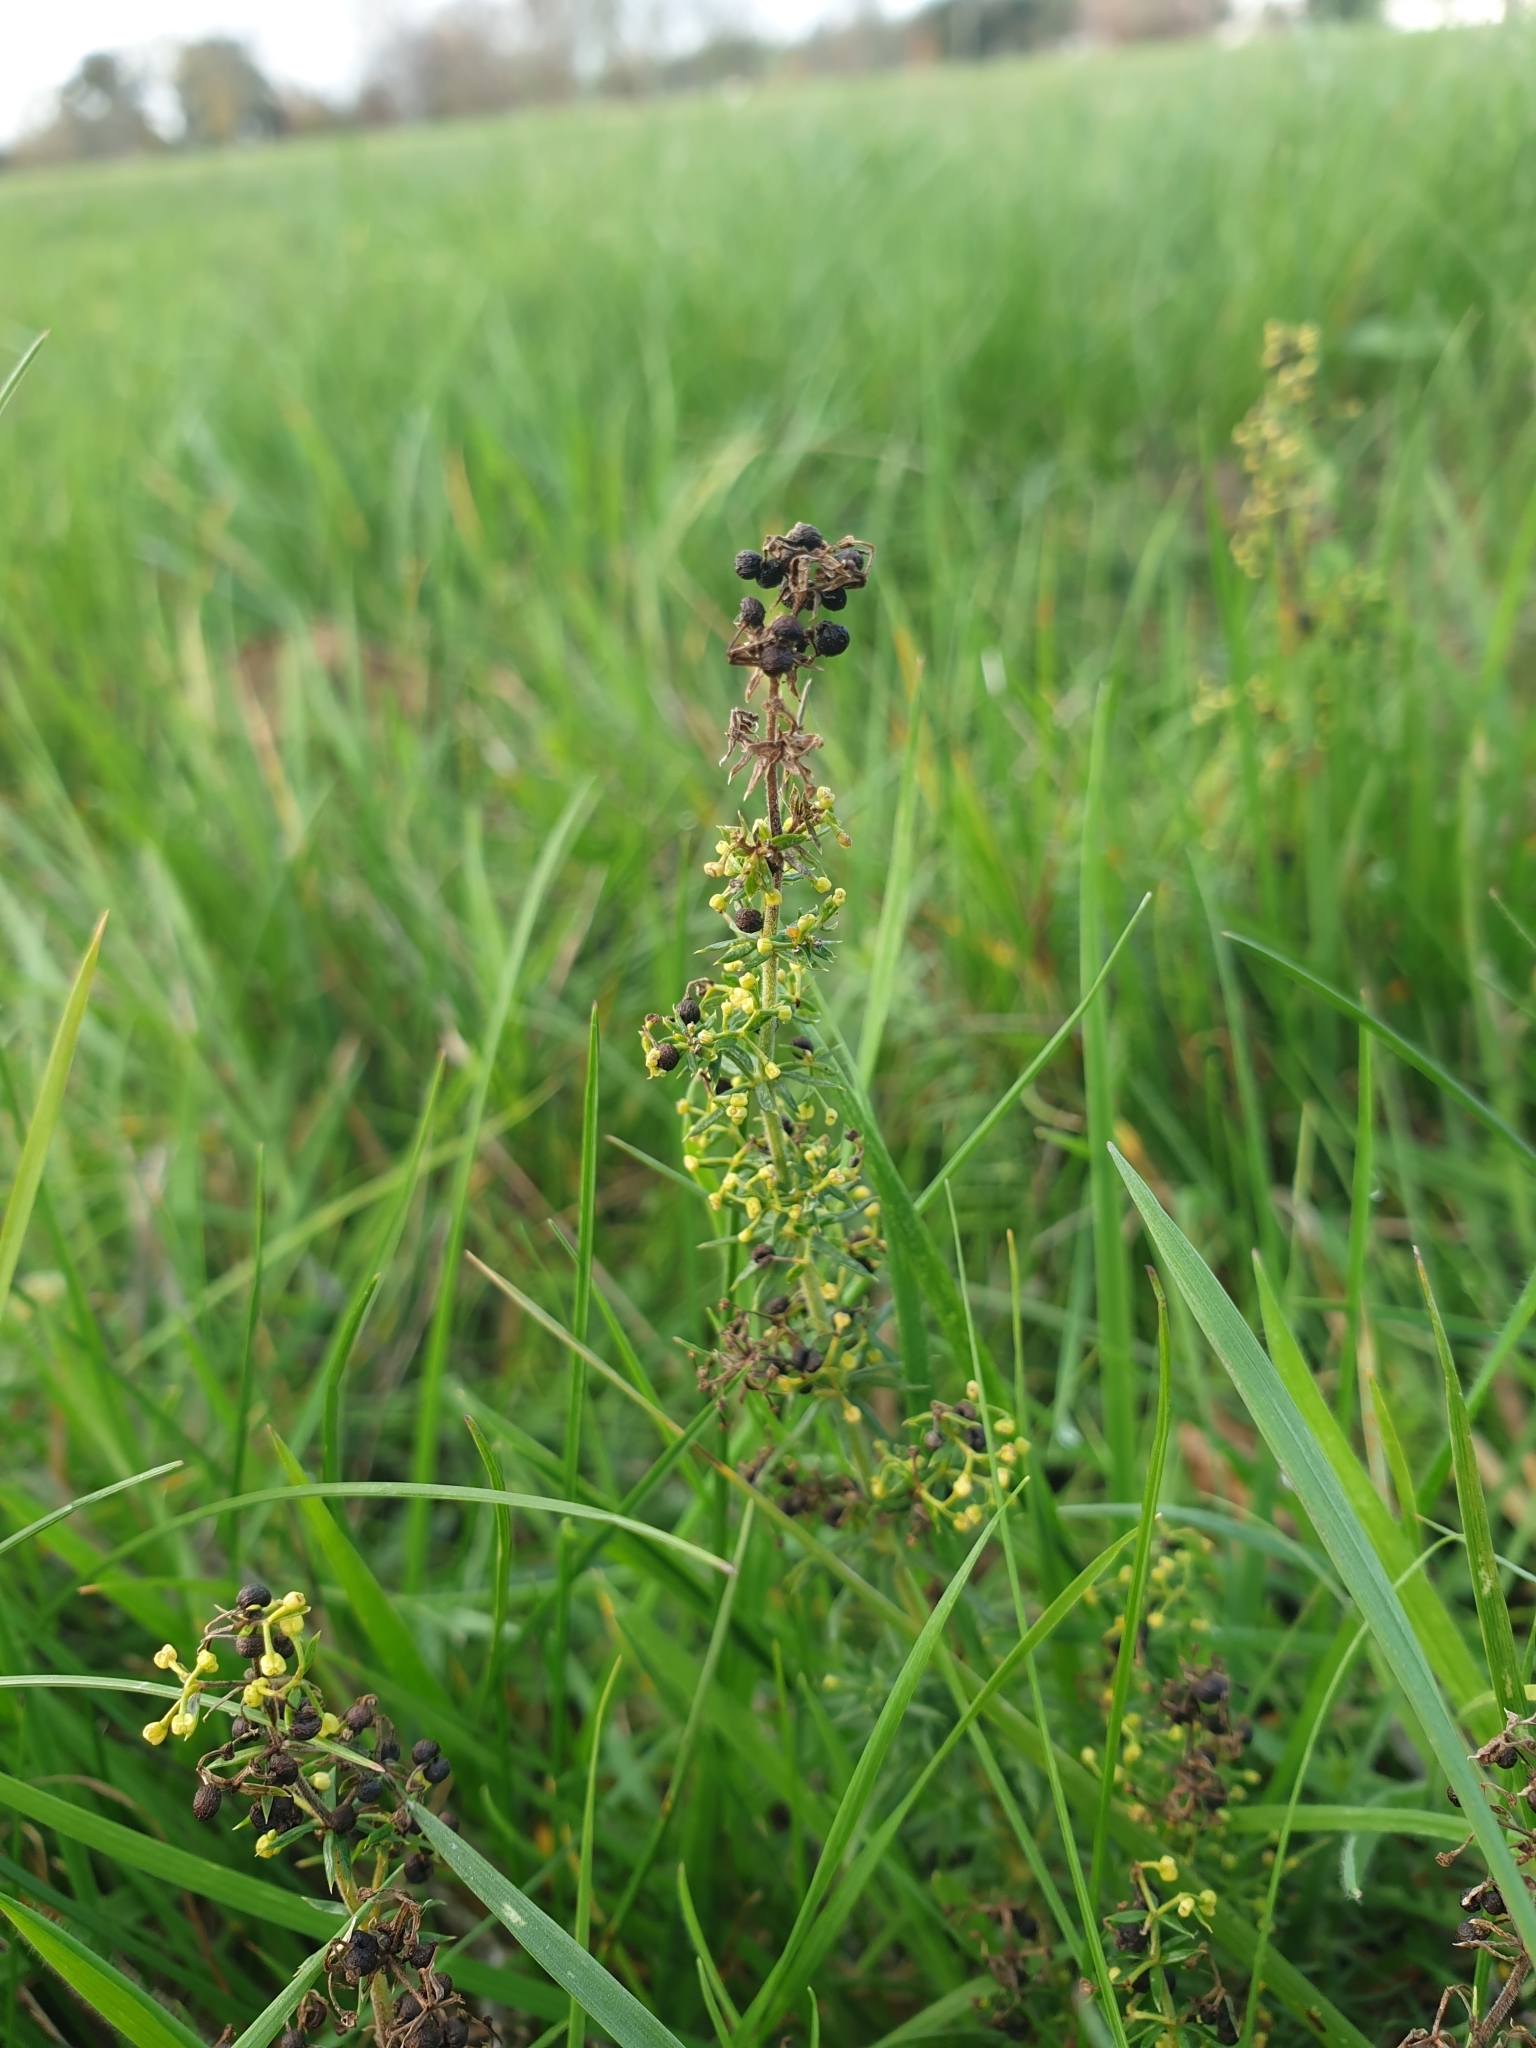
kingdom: Plantae
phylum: Tracheophyta
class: Magnoliopsida
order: Gentianales
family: Rubiaceae
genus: Galium
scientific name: Galium verum
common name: Lady's bedstraw
